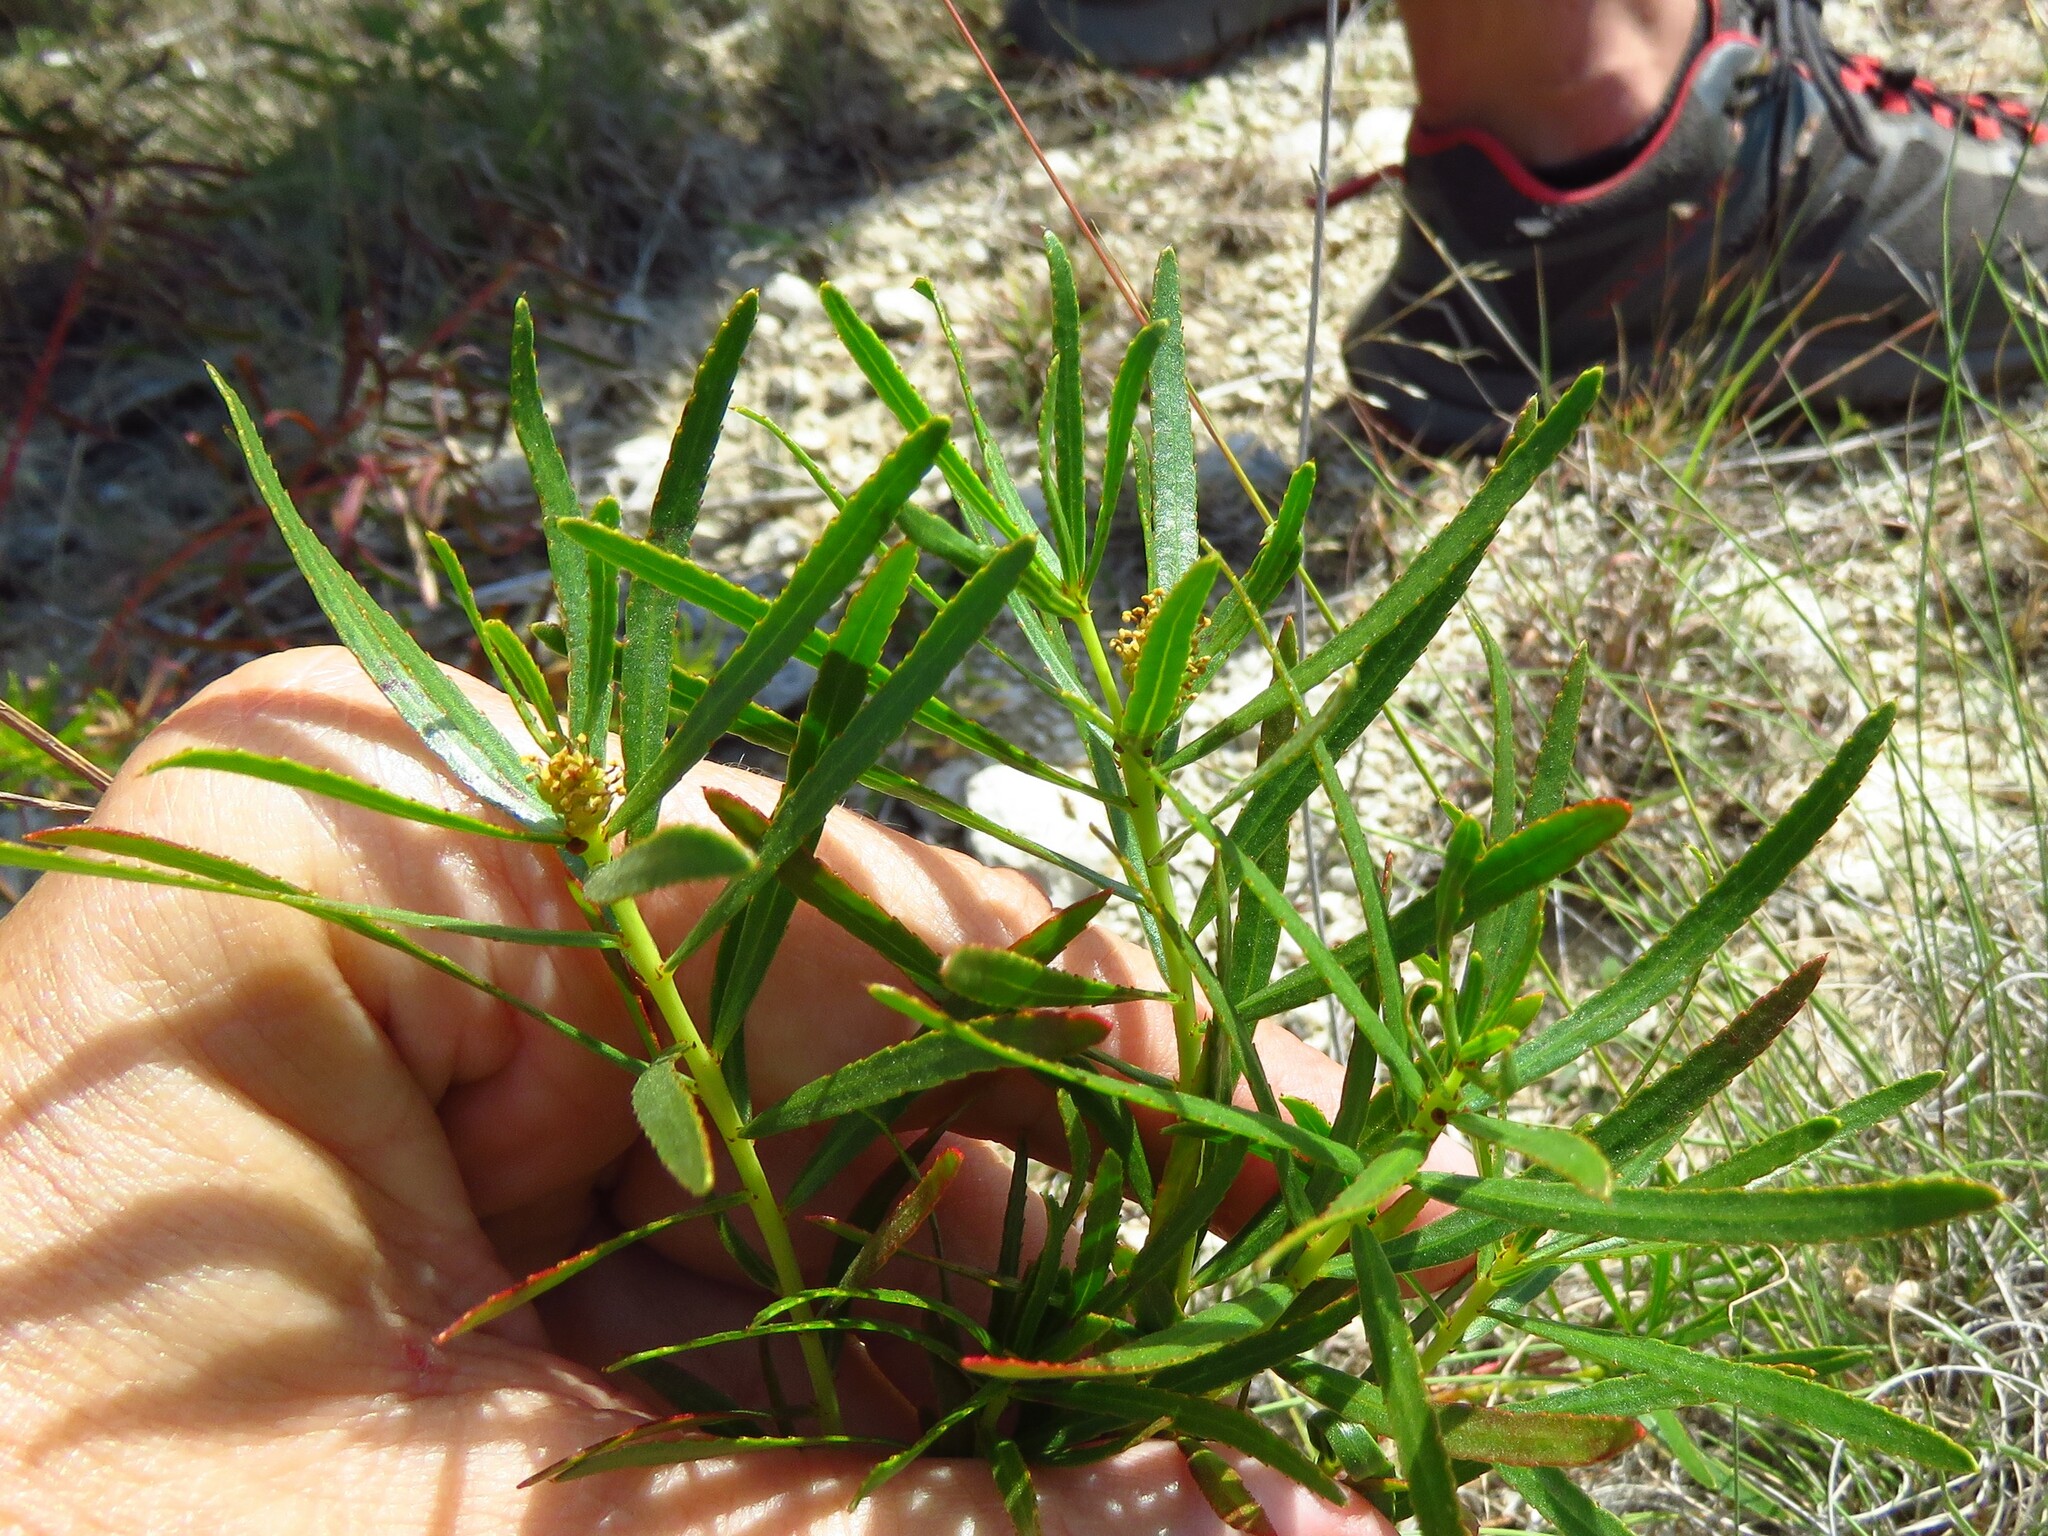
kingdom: Plantae
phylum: Tracheophyta
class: Magnoliopsida
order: Malpighiales
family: Euphorbiaceae
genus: Stillingia
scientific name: Stillingia texana
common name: Texas stillingia
